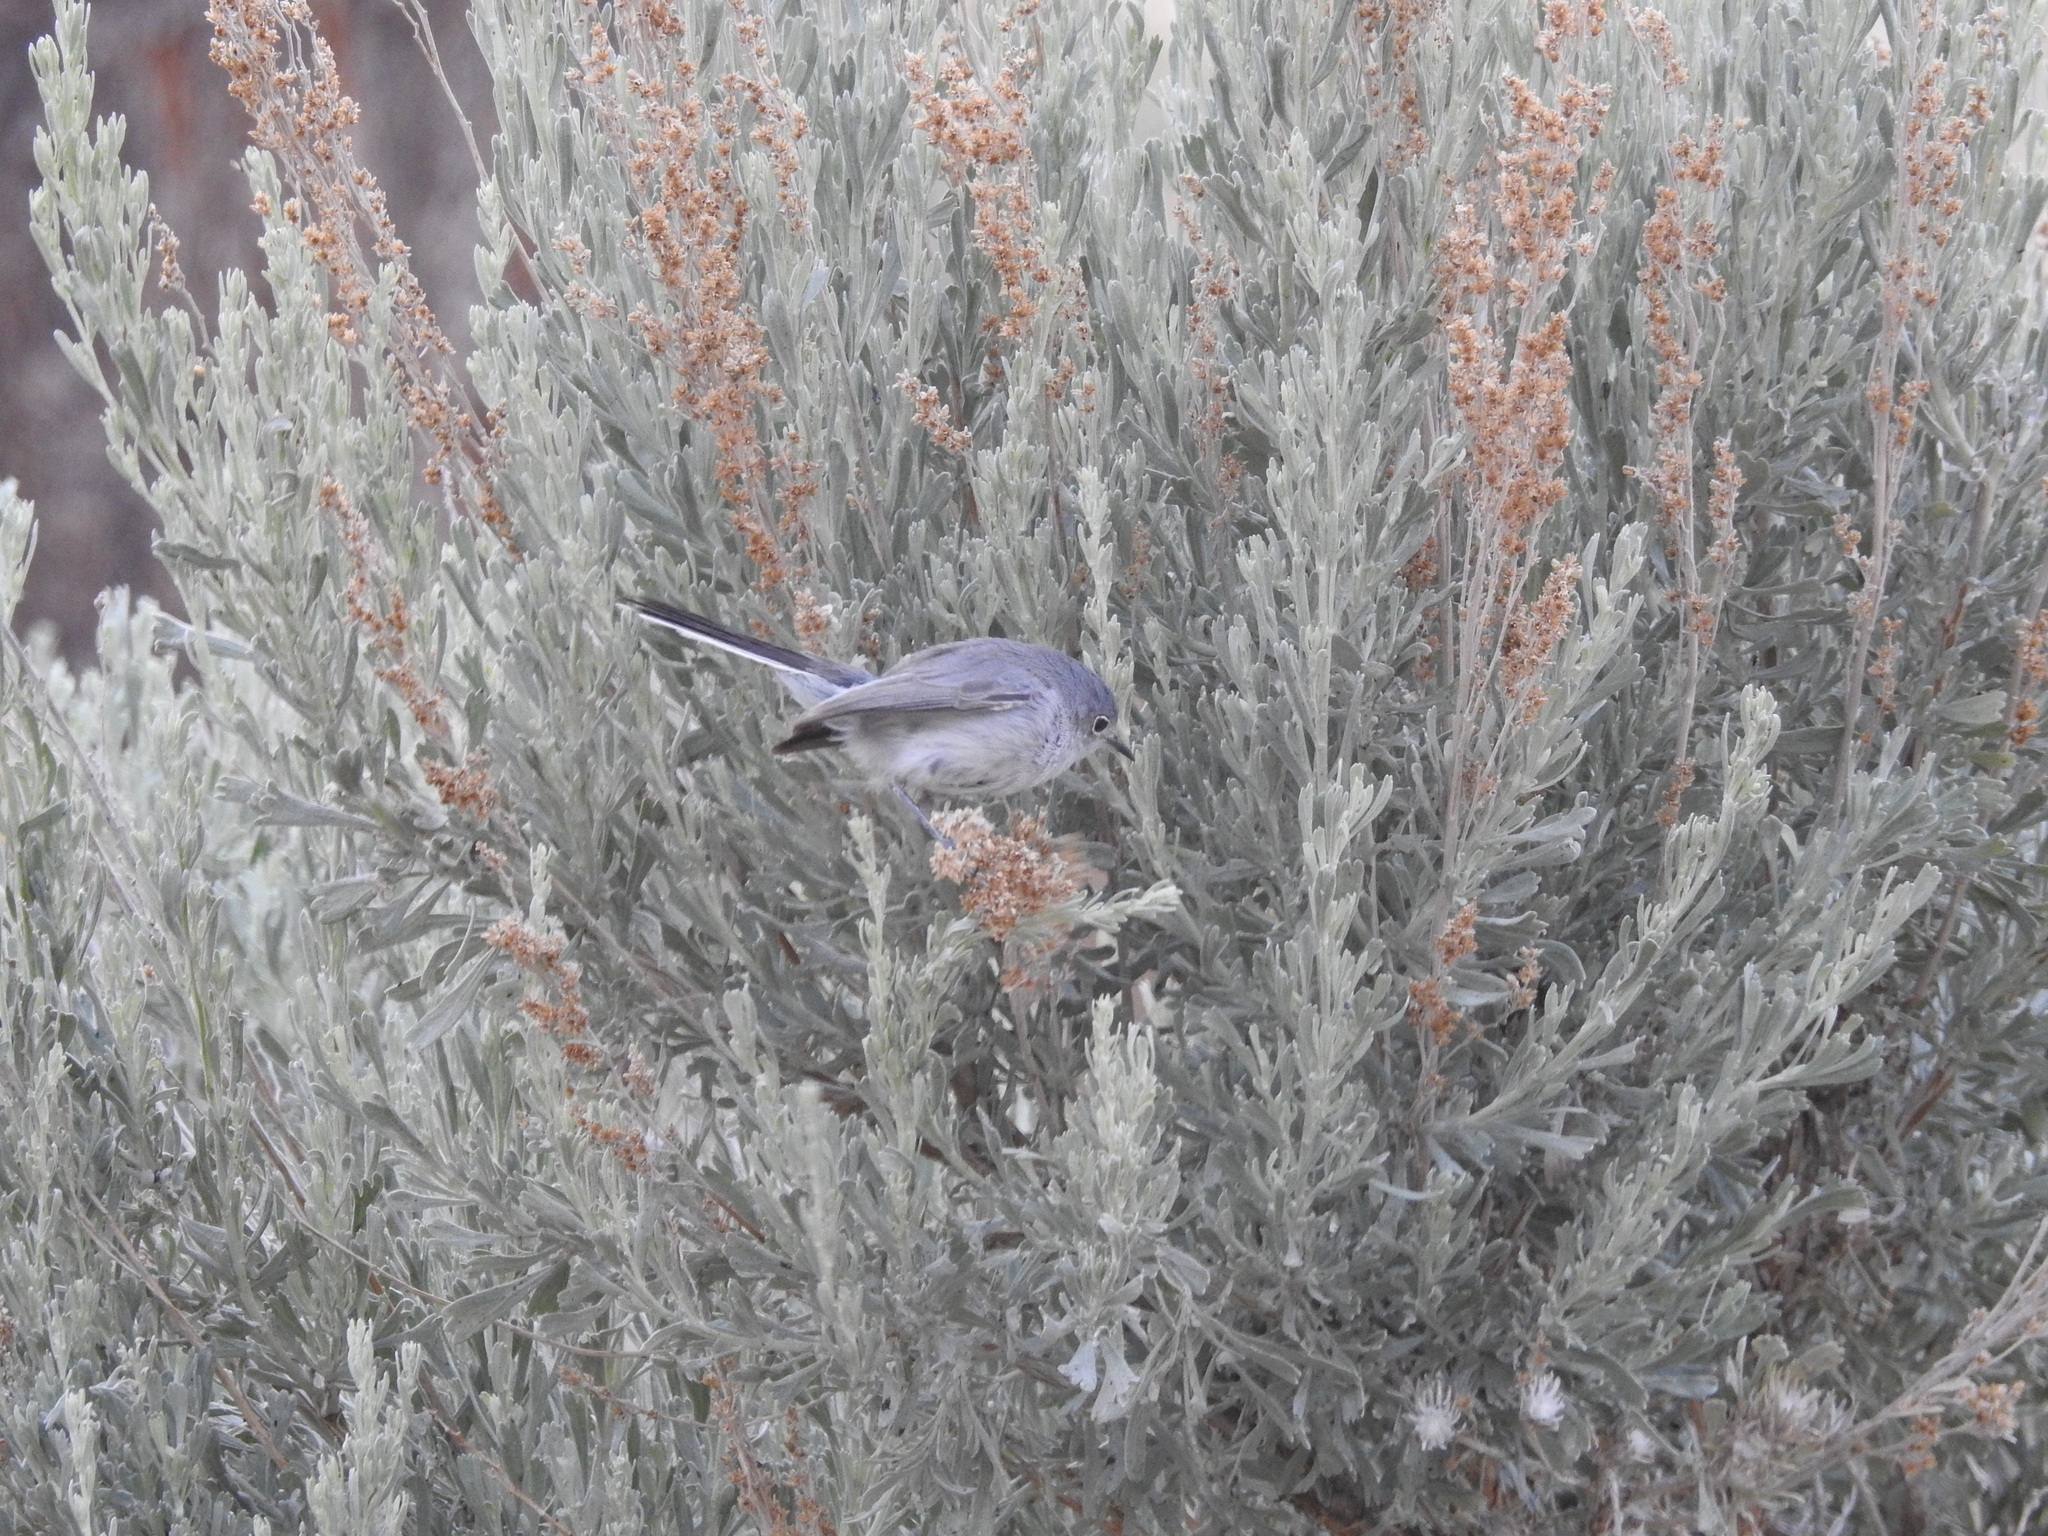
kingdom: Animalia
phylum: Chordata
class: Aves
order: Passeriformes
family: Polioptilidae
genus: Polioptila
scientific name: Polioptila caerulea
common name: Blue-gray gnatcatcher
